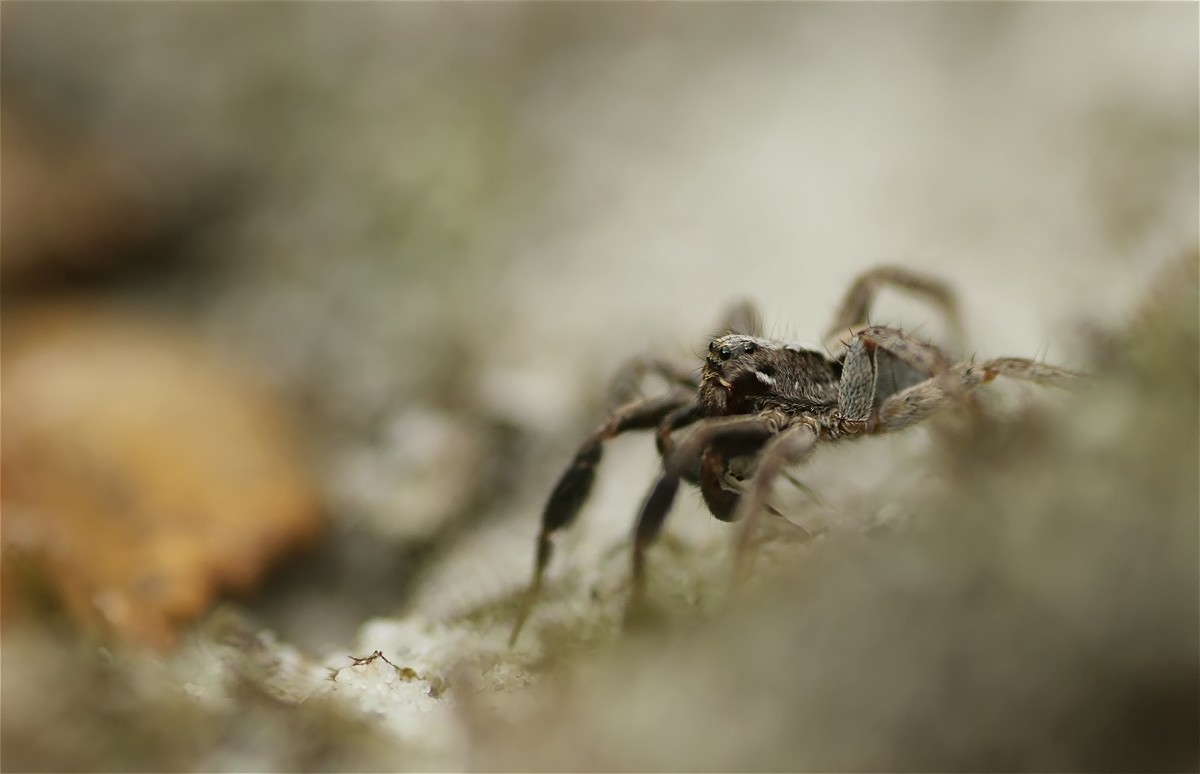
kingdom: Animalia
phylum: Arthropoda
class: Arachnida
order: Araneae
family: Lycosidae
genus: Alopecosa
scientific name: Alopecosa barbipes
